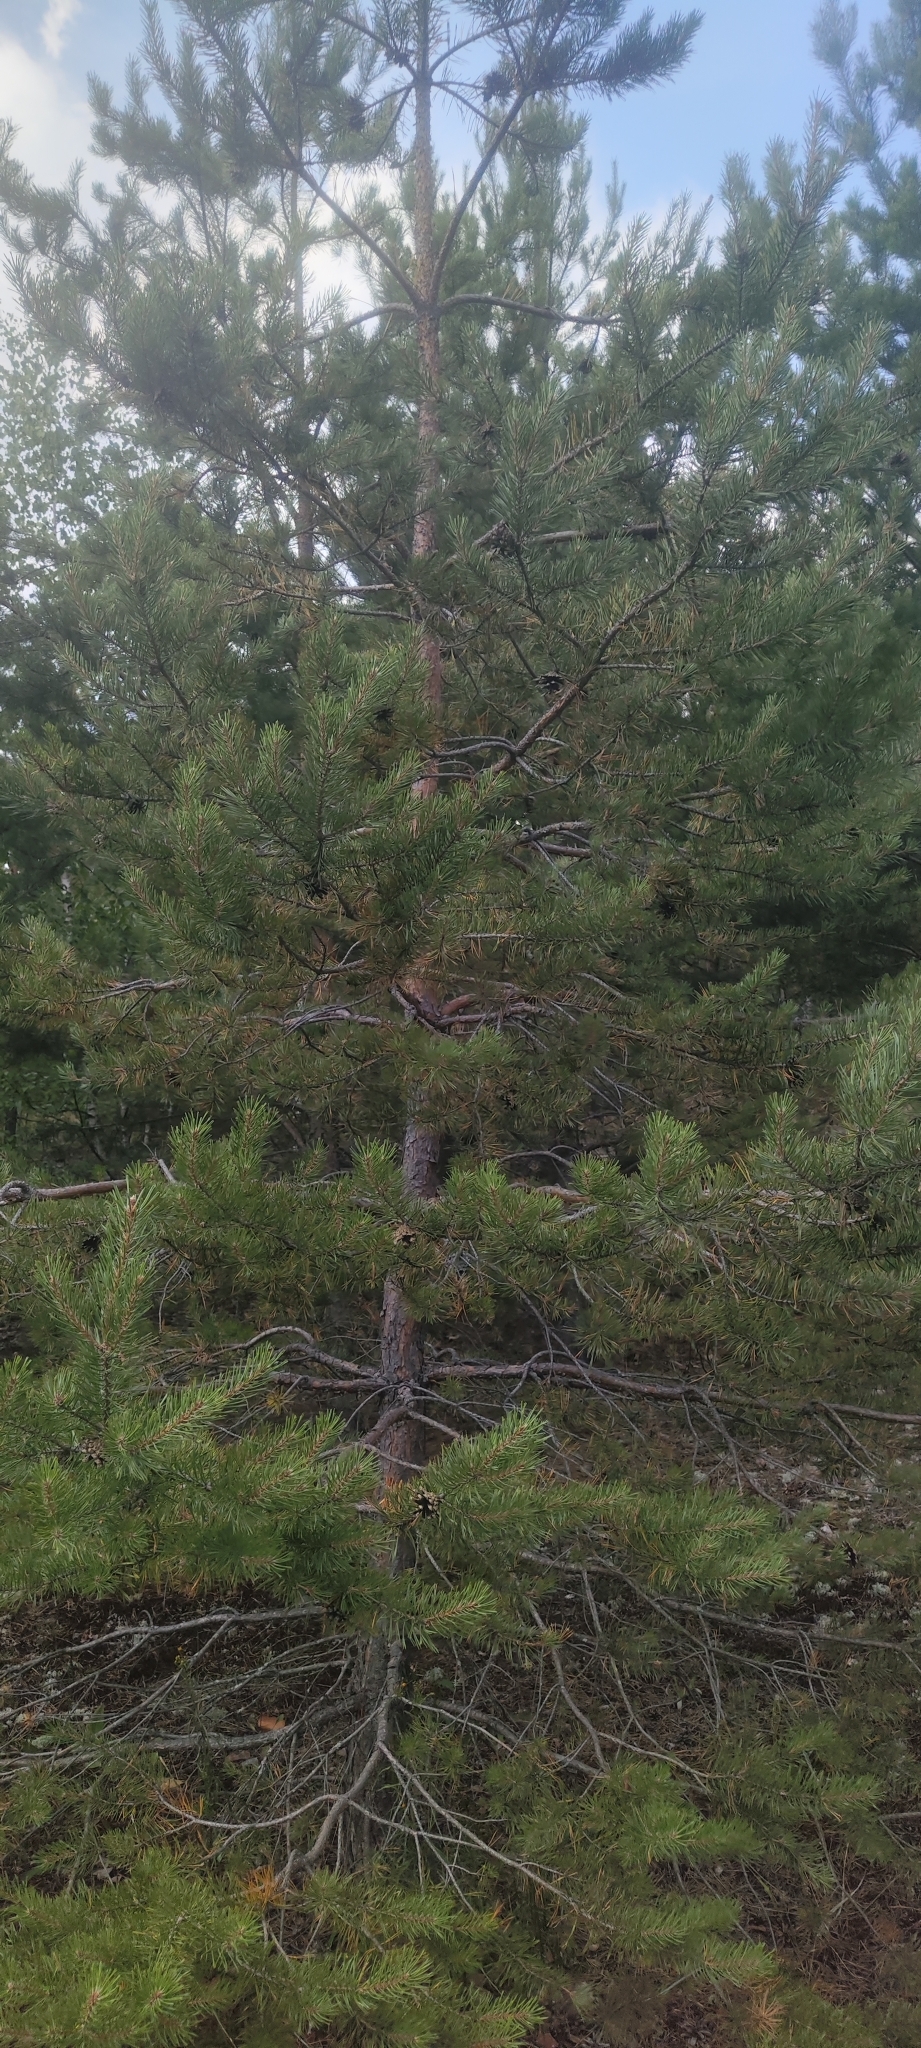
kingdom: Plantae
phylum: Tracheophyta
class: Pinopsida
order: Pinales
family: Pinaceae
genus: Pinus
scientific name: Pinus sylvestris
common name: Scots pine
